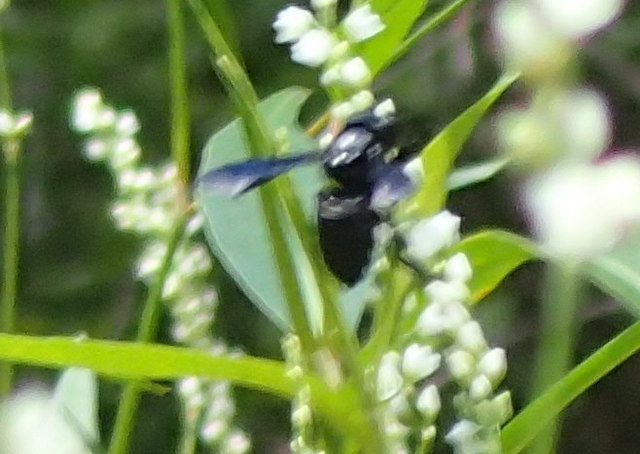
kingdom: Animalia
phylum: Arthropoda
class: Insecta
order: Hymenoptera
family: Megachilidae
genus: Megachile
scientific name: Megachile xylocopoides
